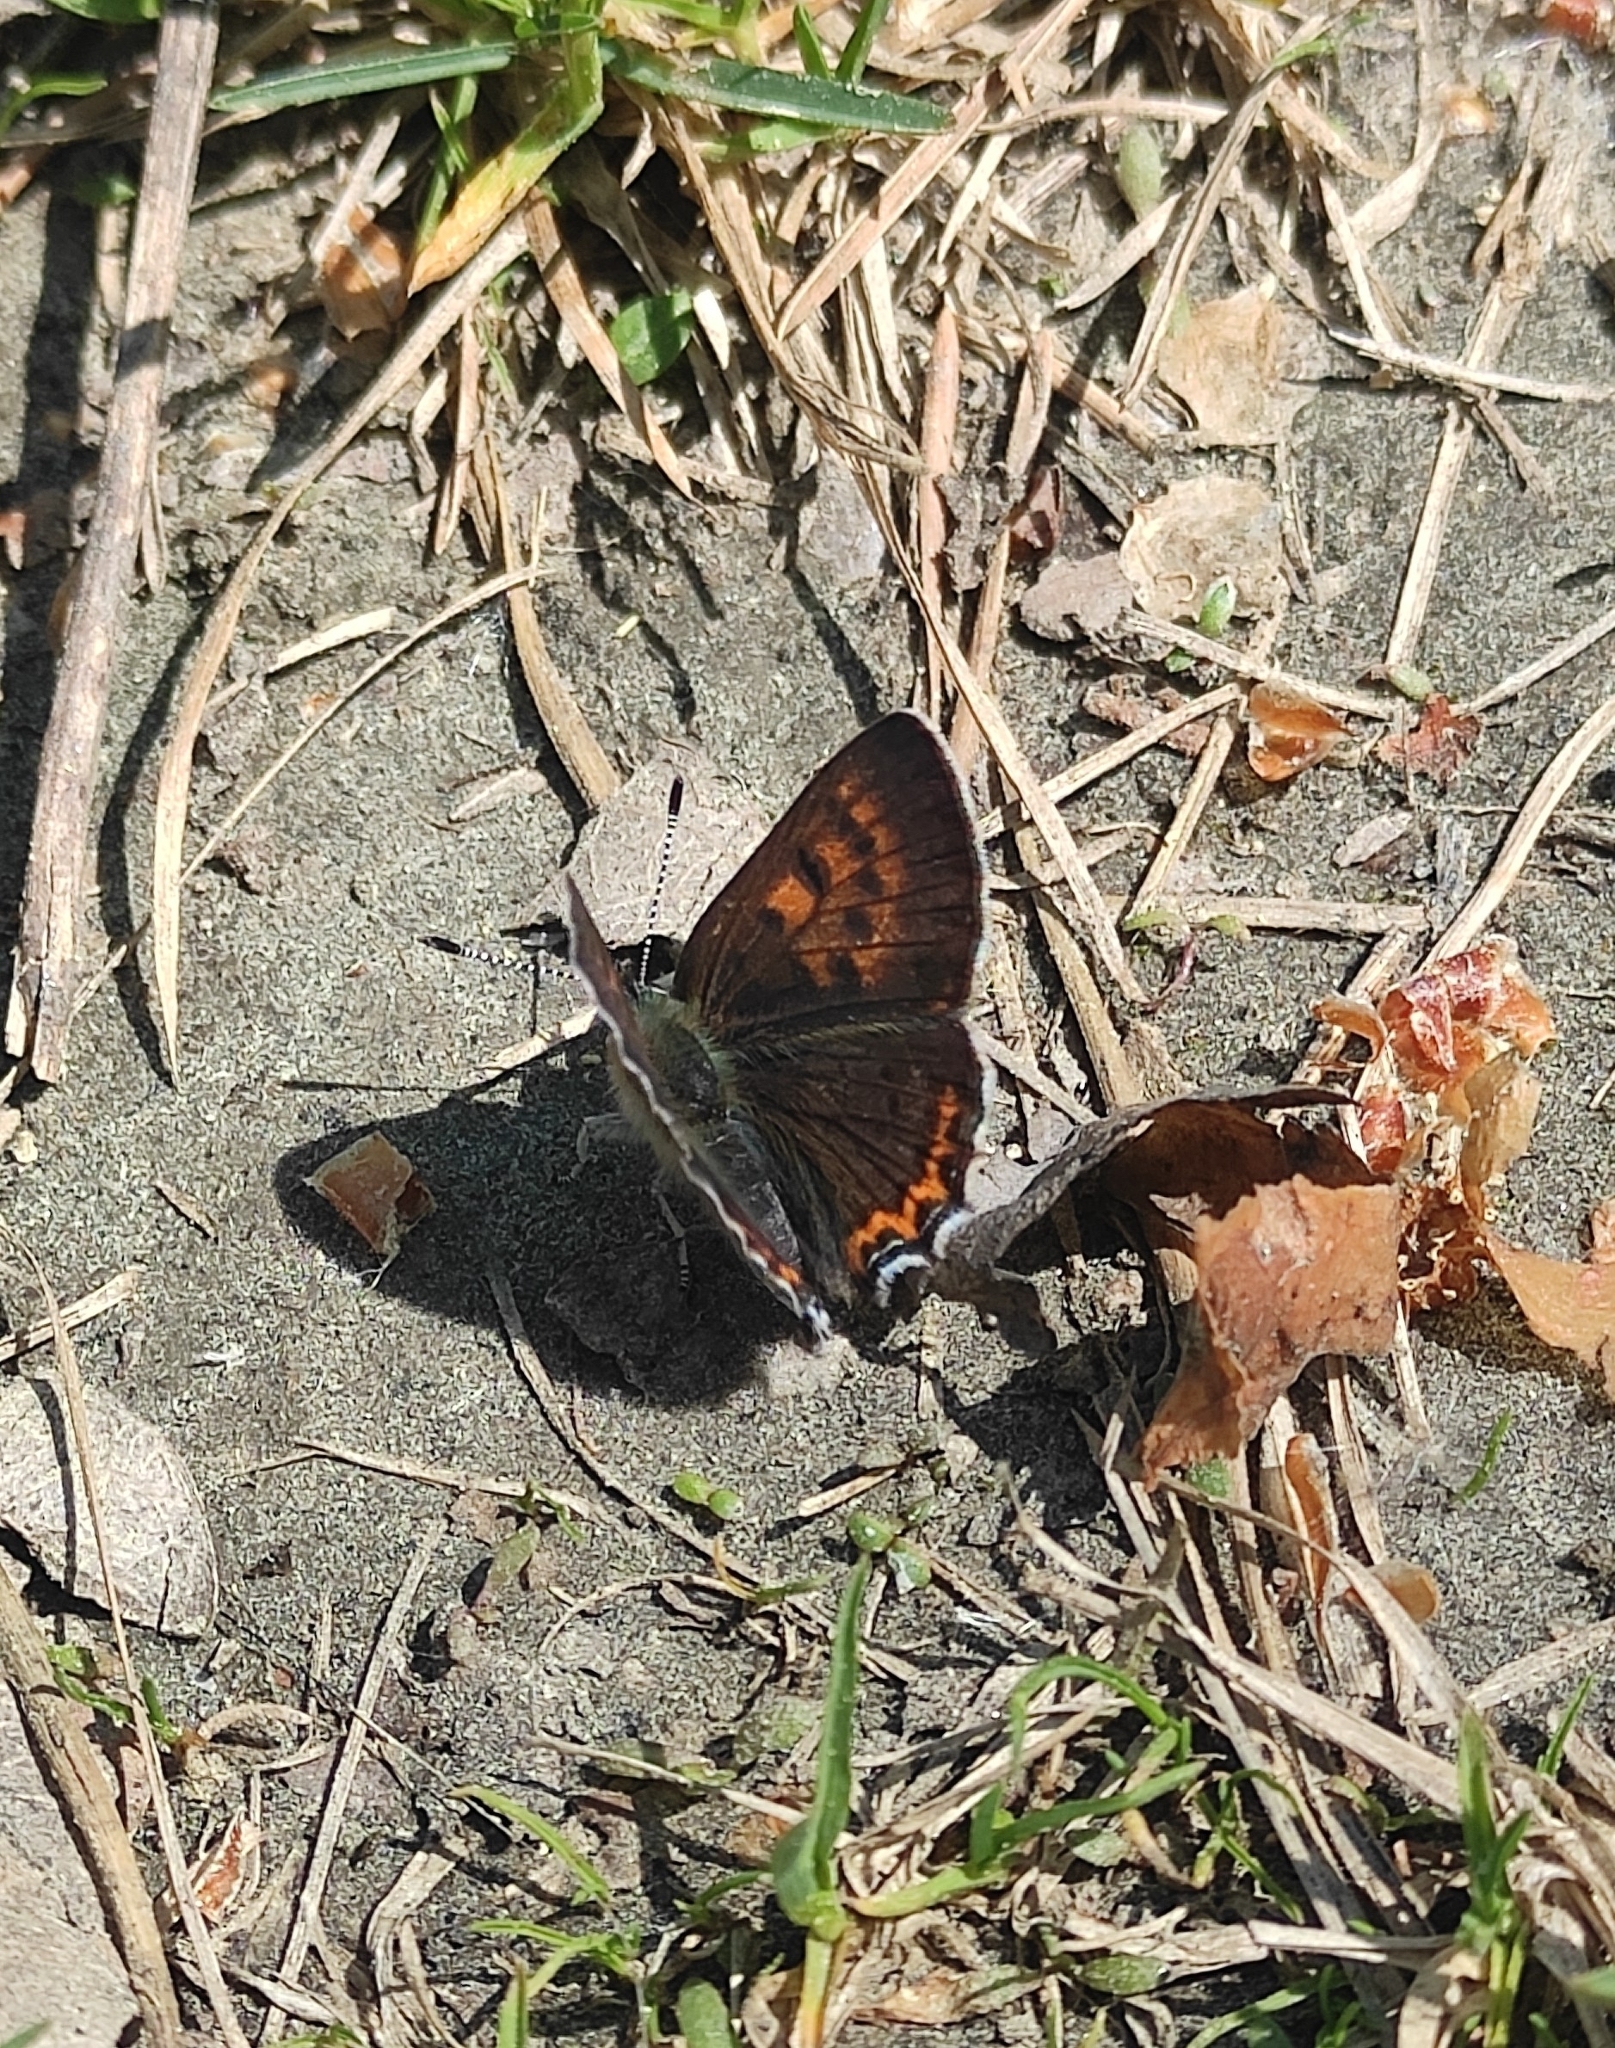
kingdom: Animalia
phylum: Arthropoda
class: Insecta
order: Lepidoptera
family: Lycaenidae
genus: Helleia
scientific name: Helleia helle
